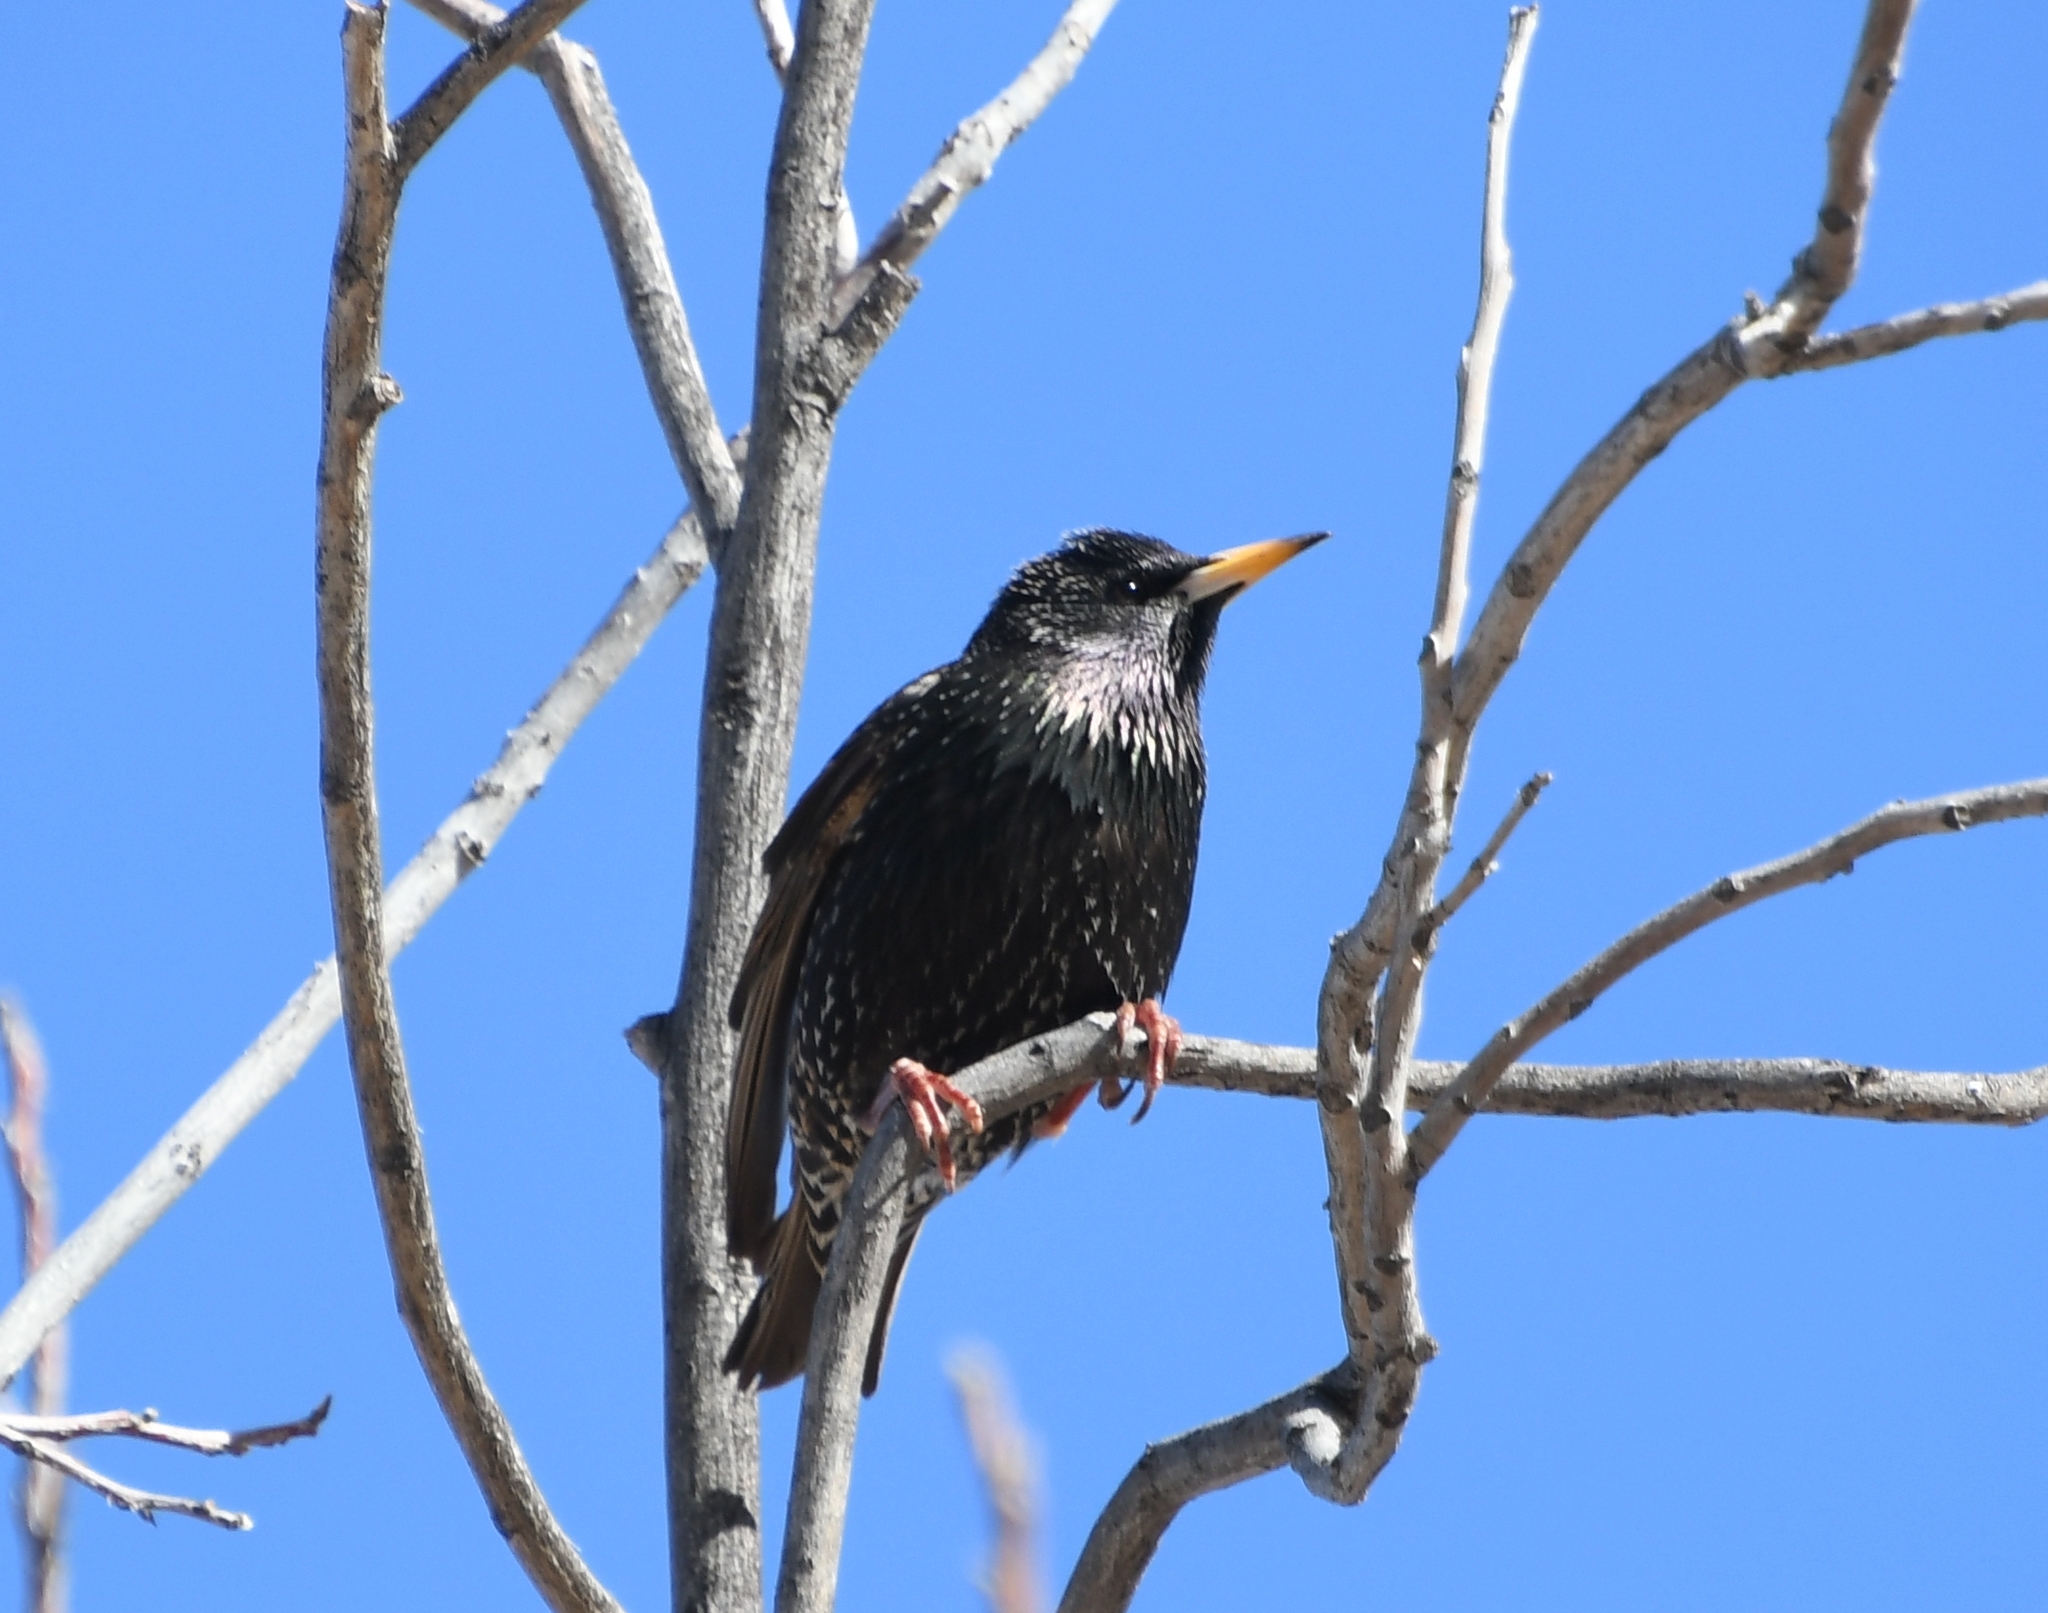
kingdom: Animalia
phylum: Chordata
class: Aves
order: Passeriformes
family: Sturnidae
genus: Sturnus
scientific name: Sturnus vulgaris
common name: Common starling
